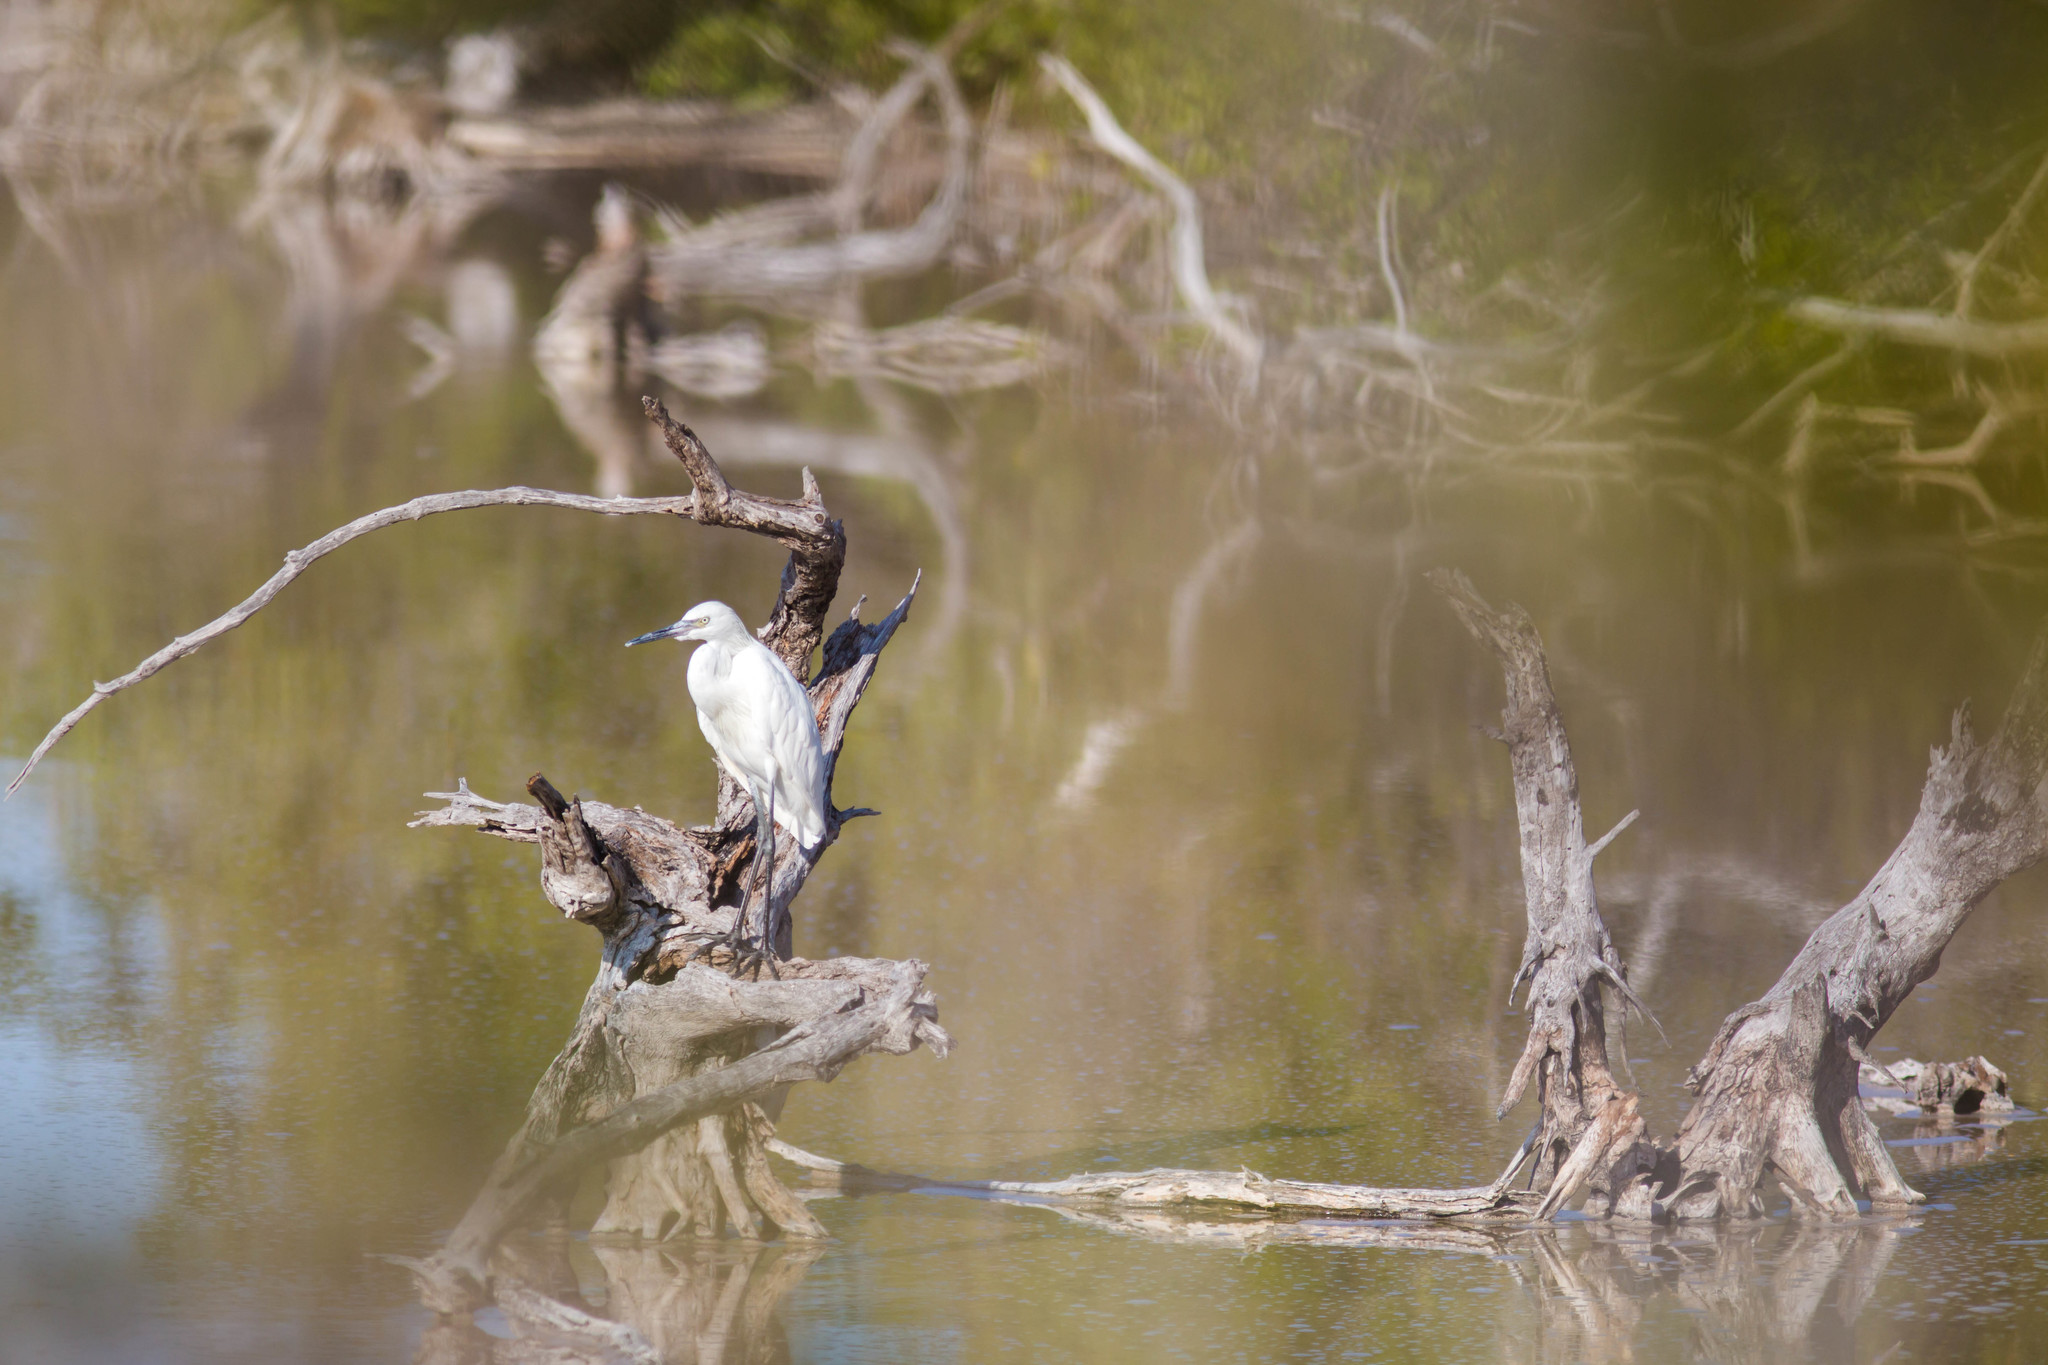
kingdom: Animalia
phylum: Chordata
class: Aves
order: Pelecaniformes
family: Ardeidae
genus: Egretta
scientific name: Egretta rufescens
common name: Reddish egret
